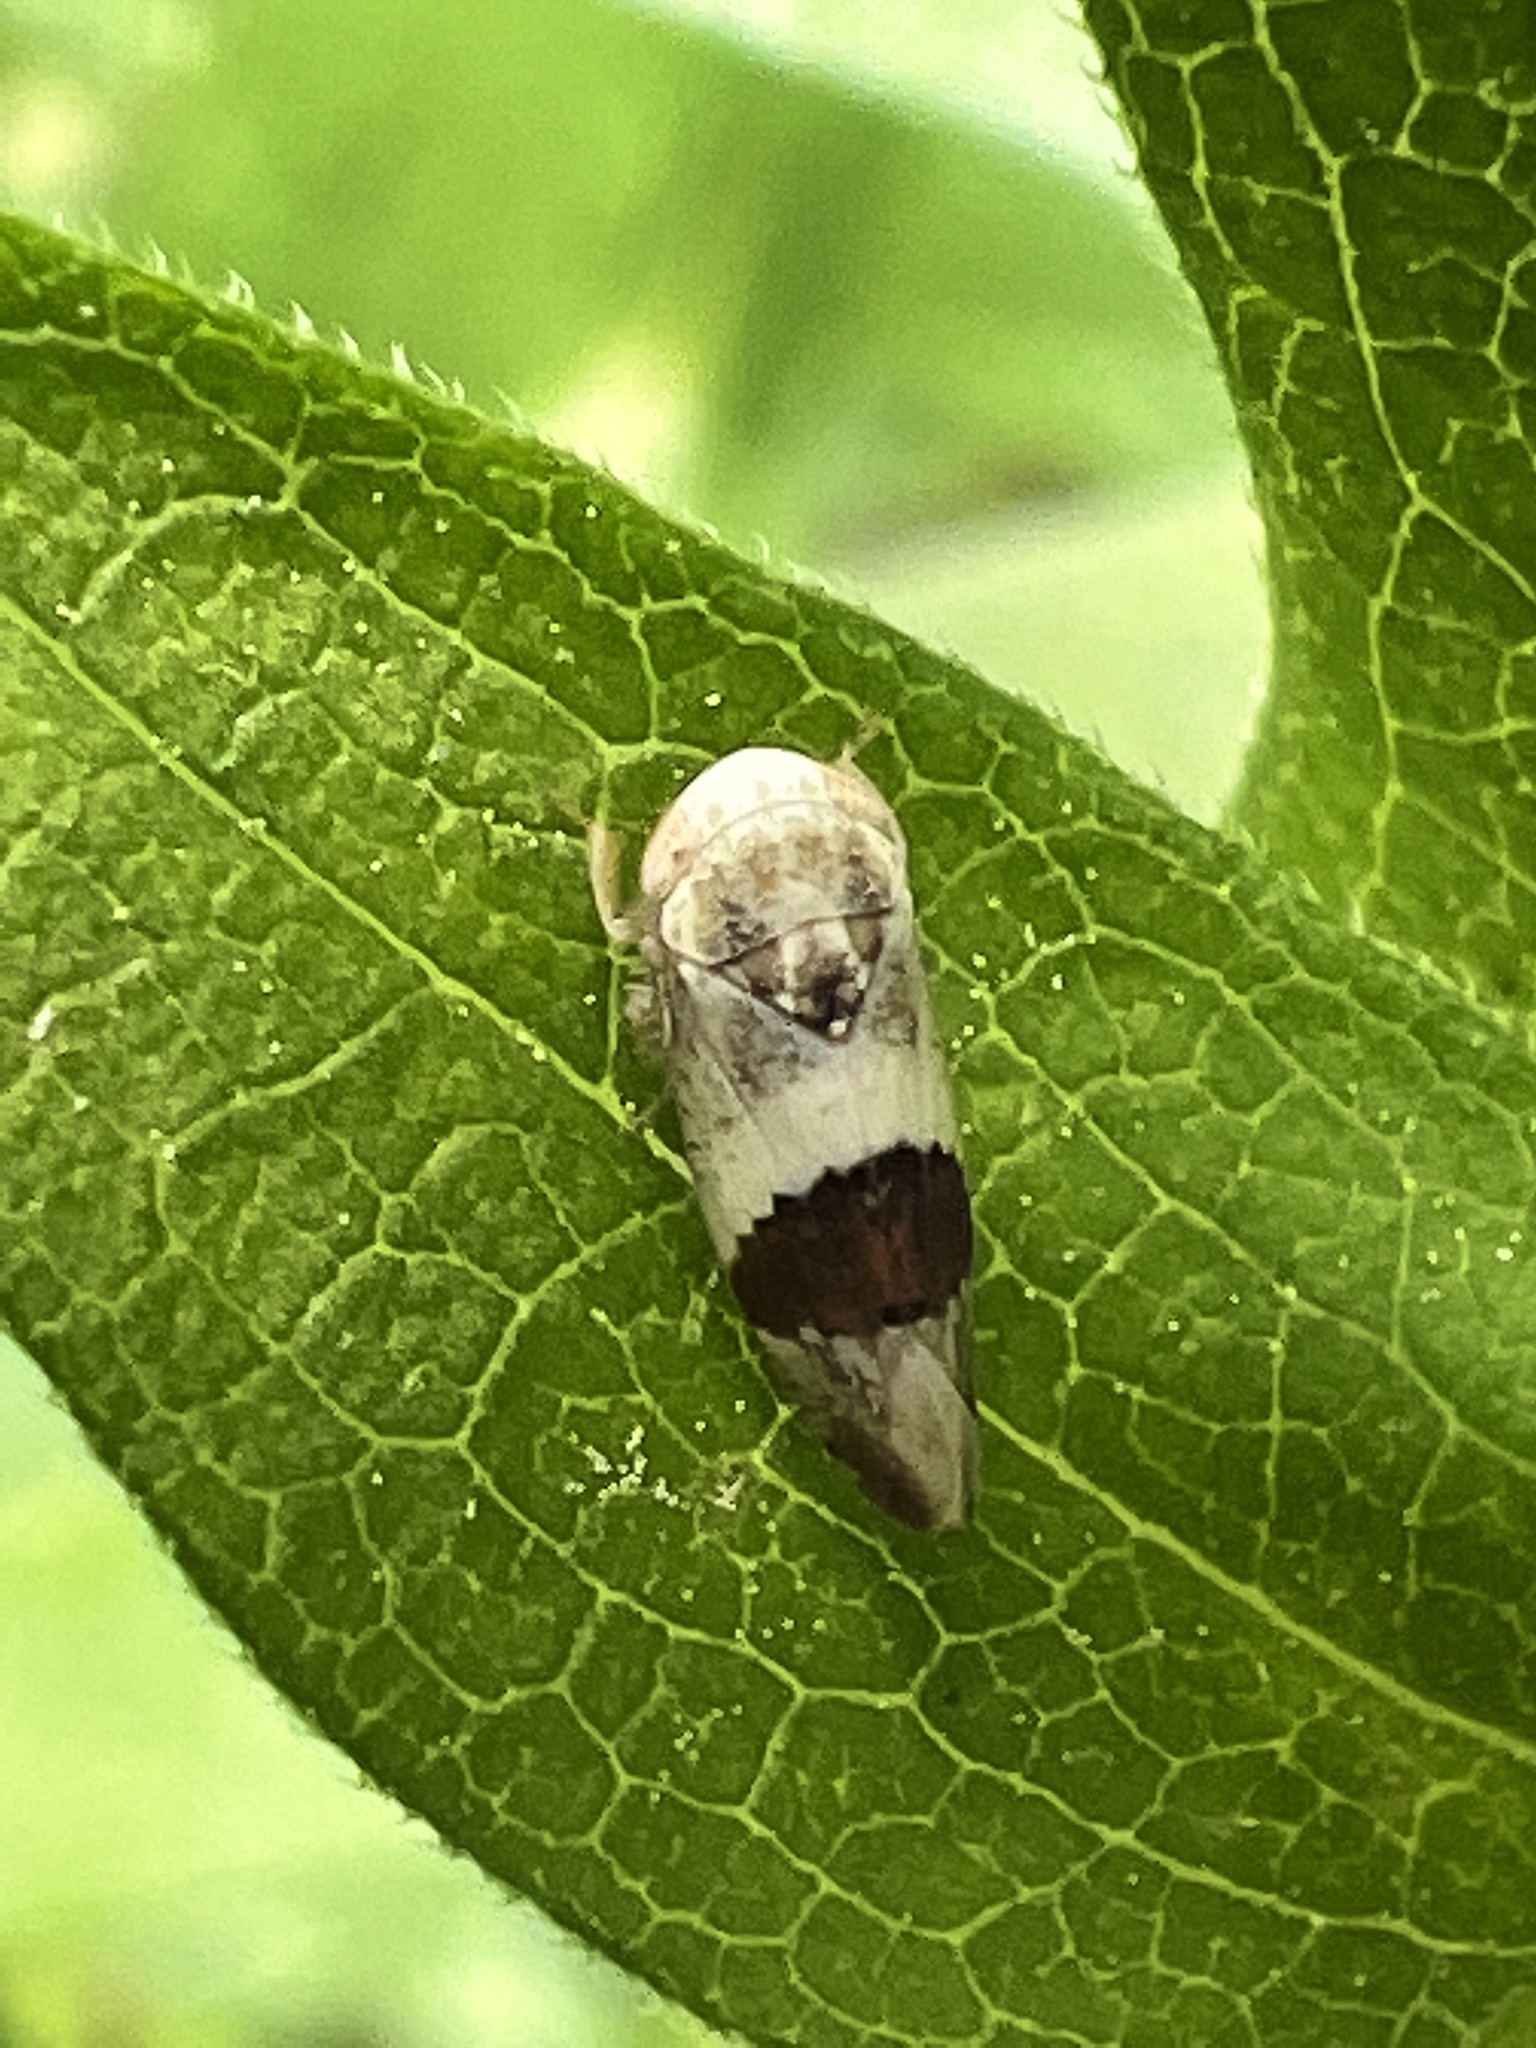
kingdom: Animalia
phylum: Arthropoda
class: Insecta
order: Hemiptera
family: Cicadellidae
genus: Norvellina
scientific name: Norvellina seminuda
